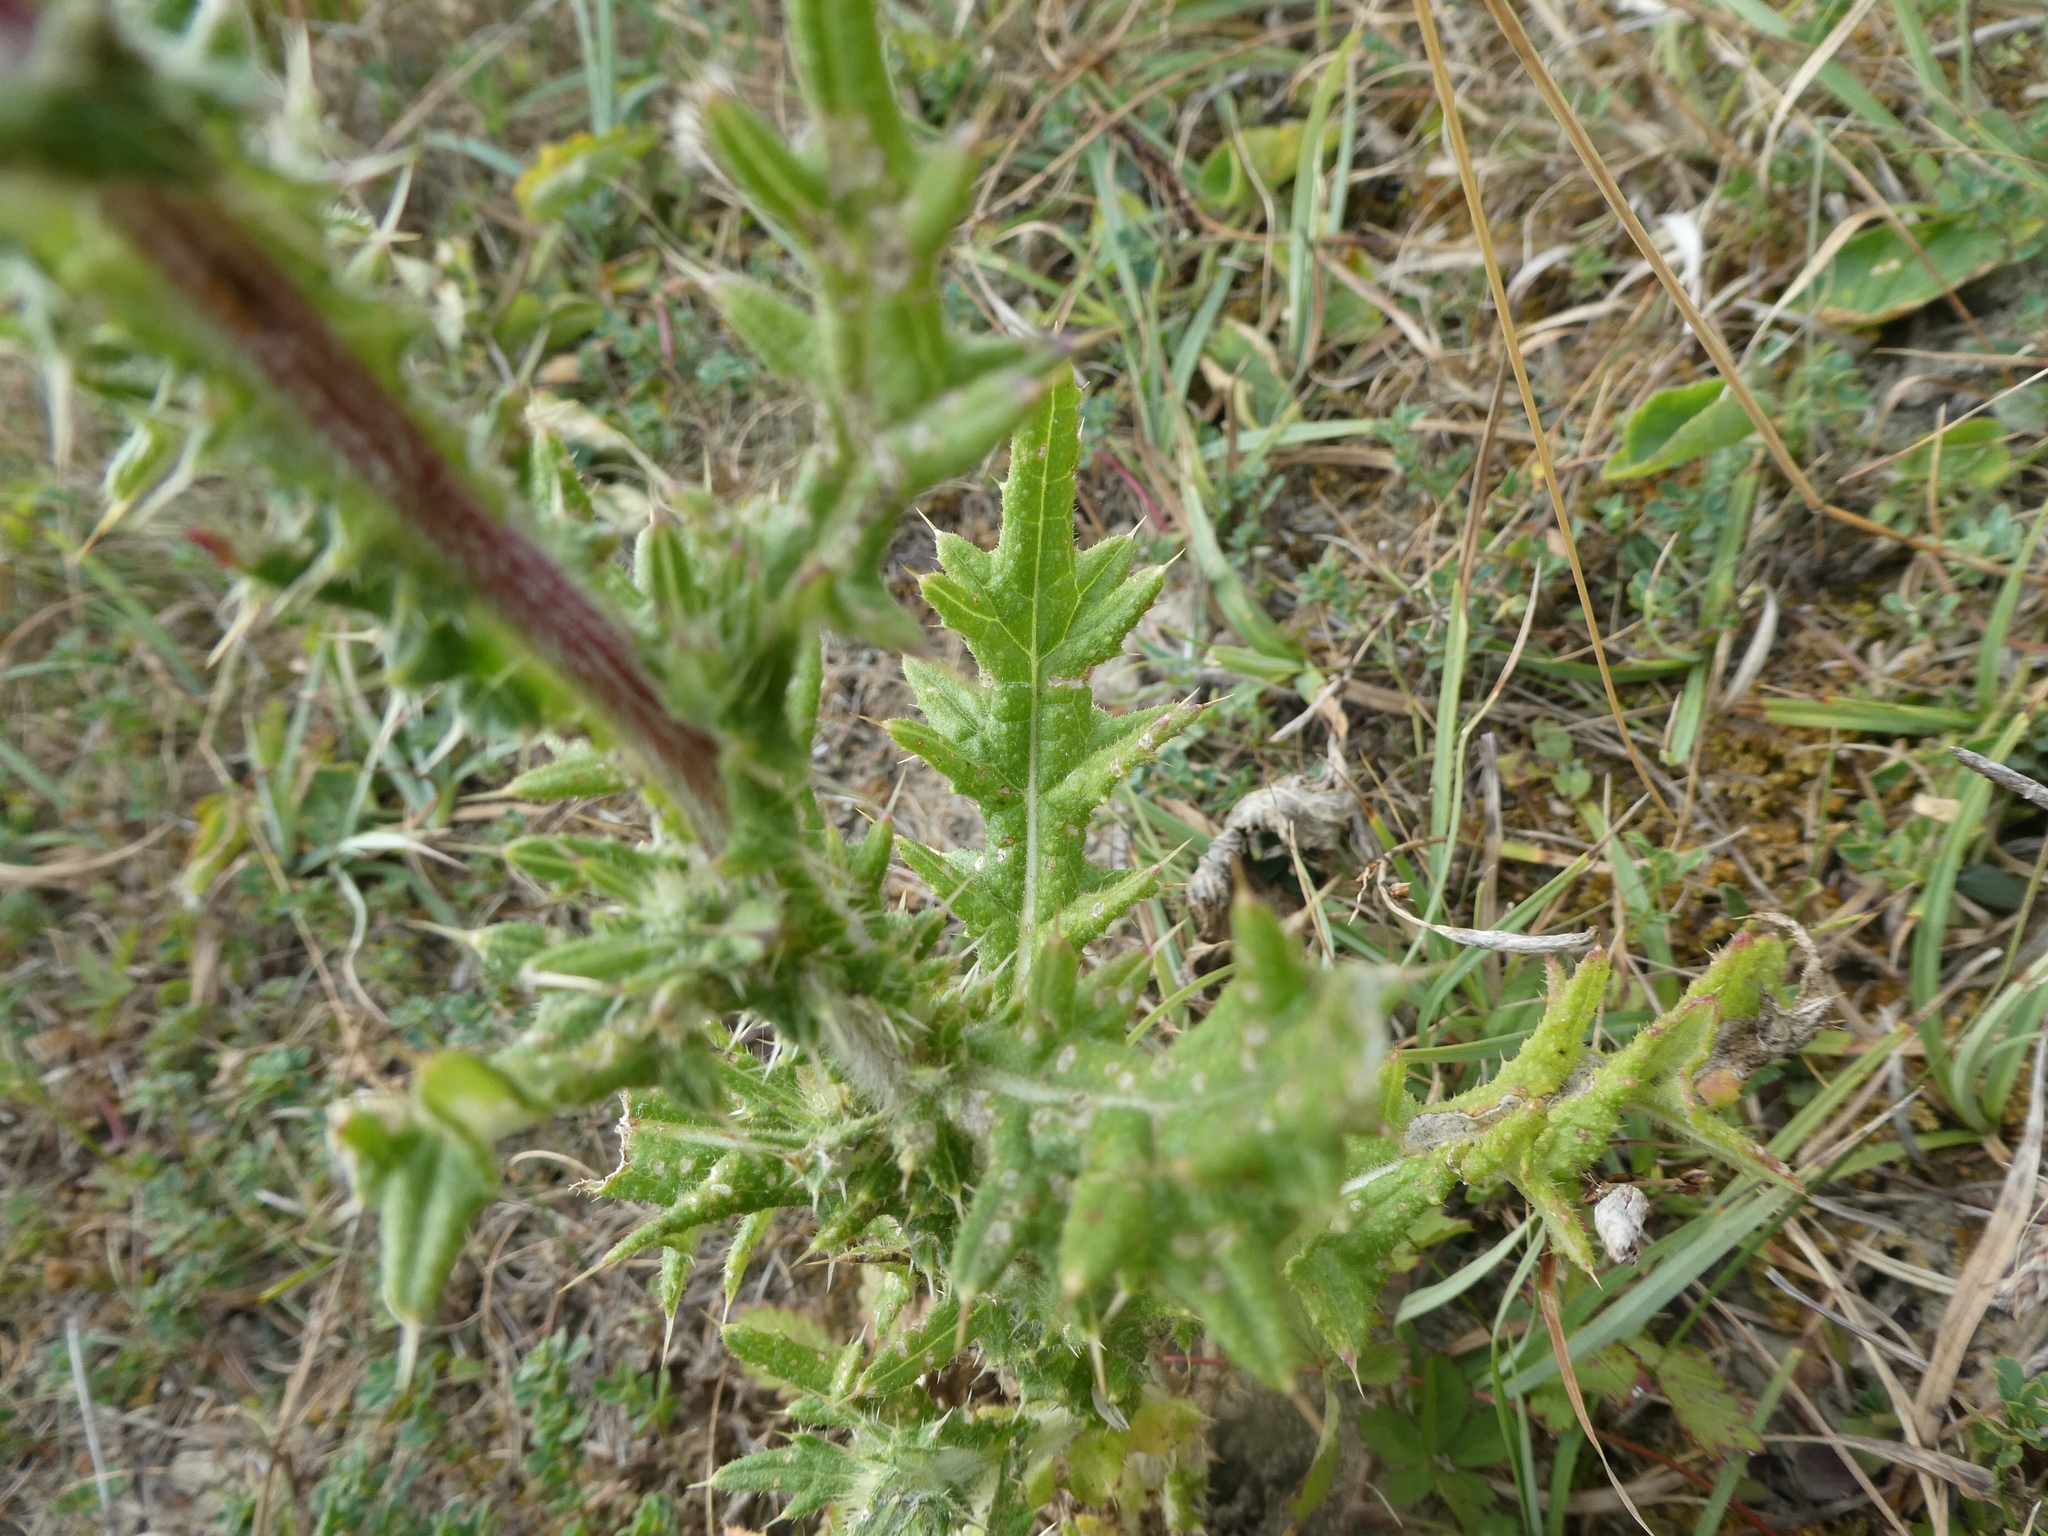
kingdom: Plantae
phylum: Tracheophyta
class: Magnoliopsida
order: Asterales
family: Asteraceae
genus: Cirsium
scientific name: Cirsium vulgare
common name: Bull thistle
